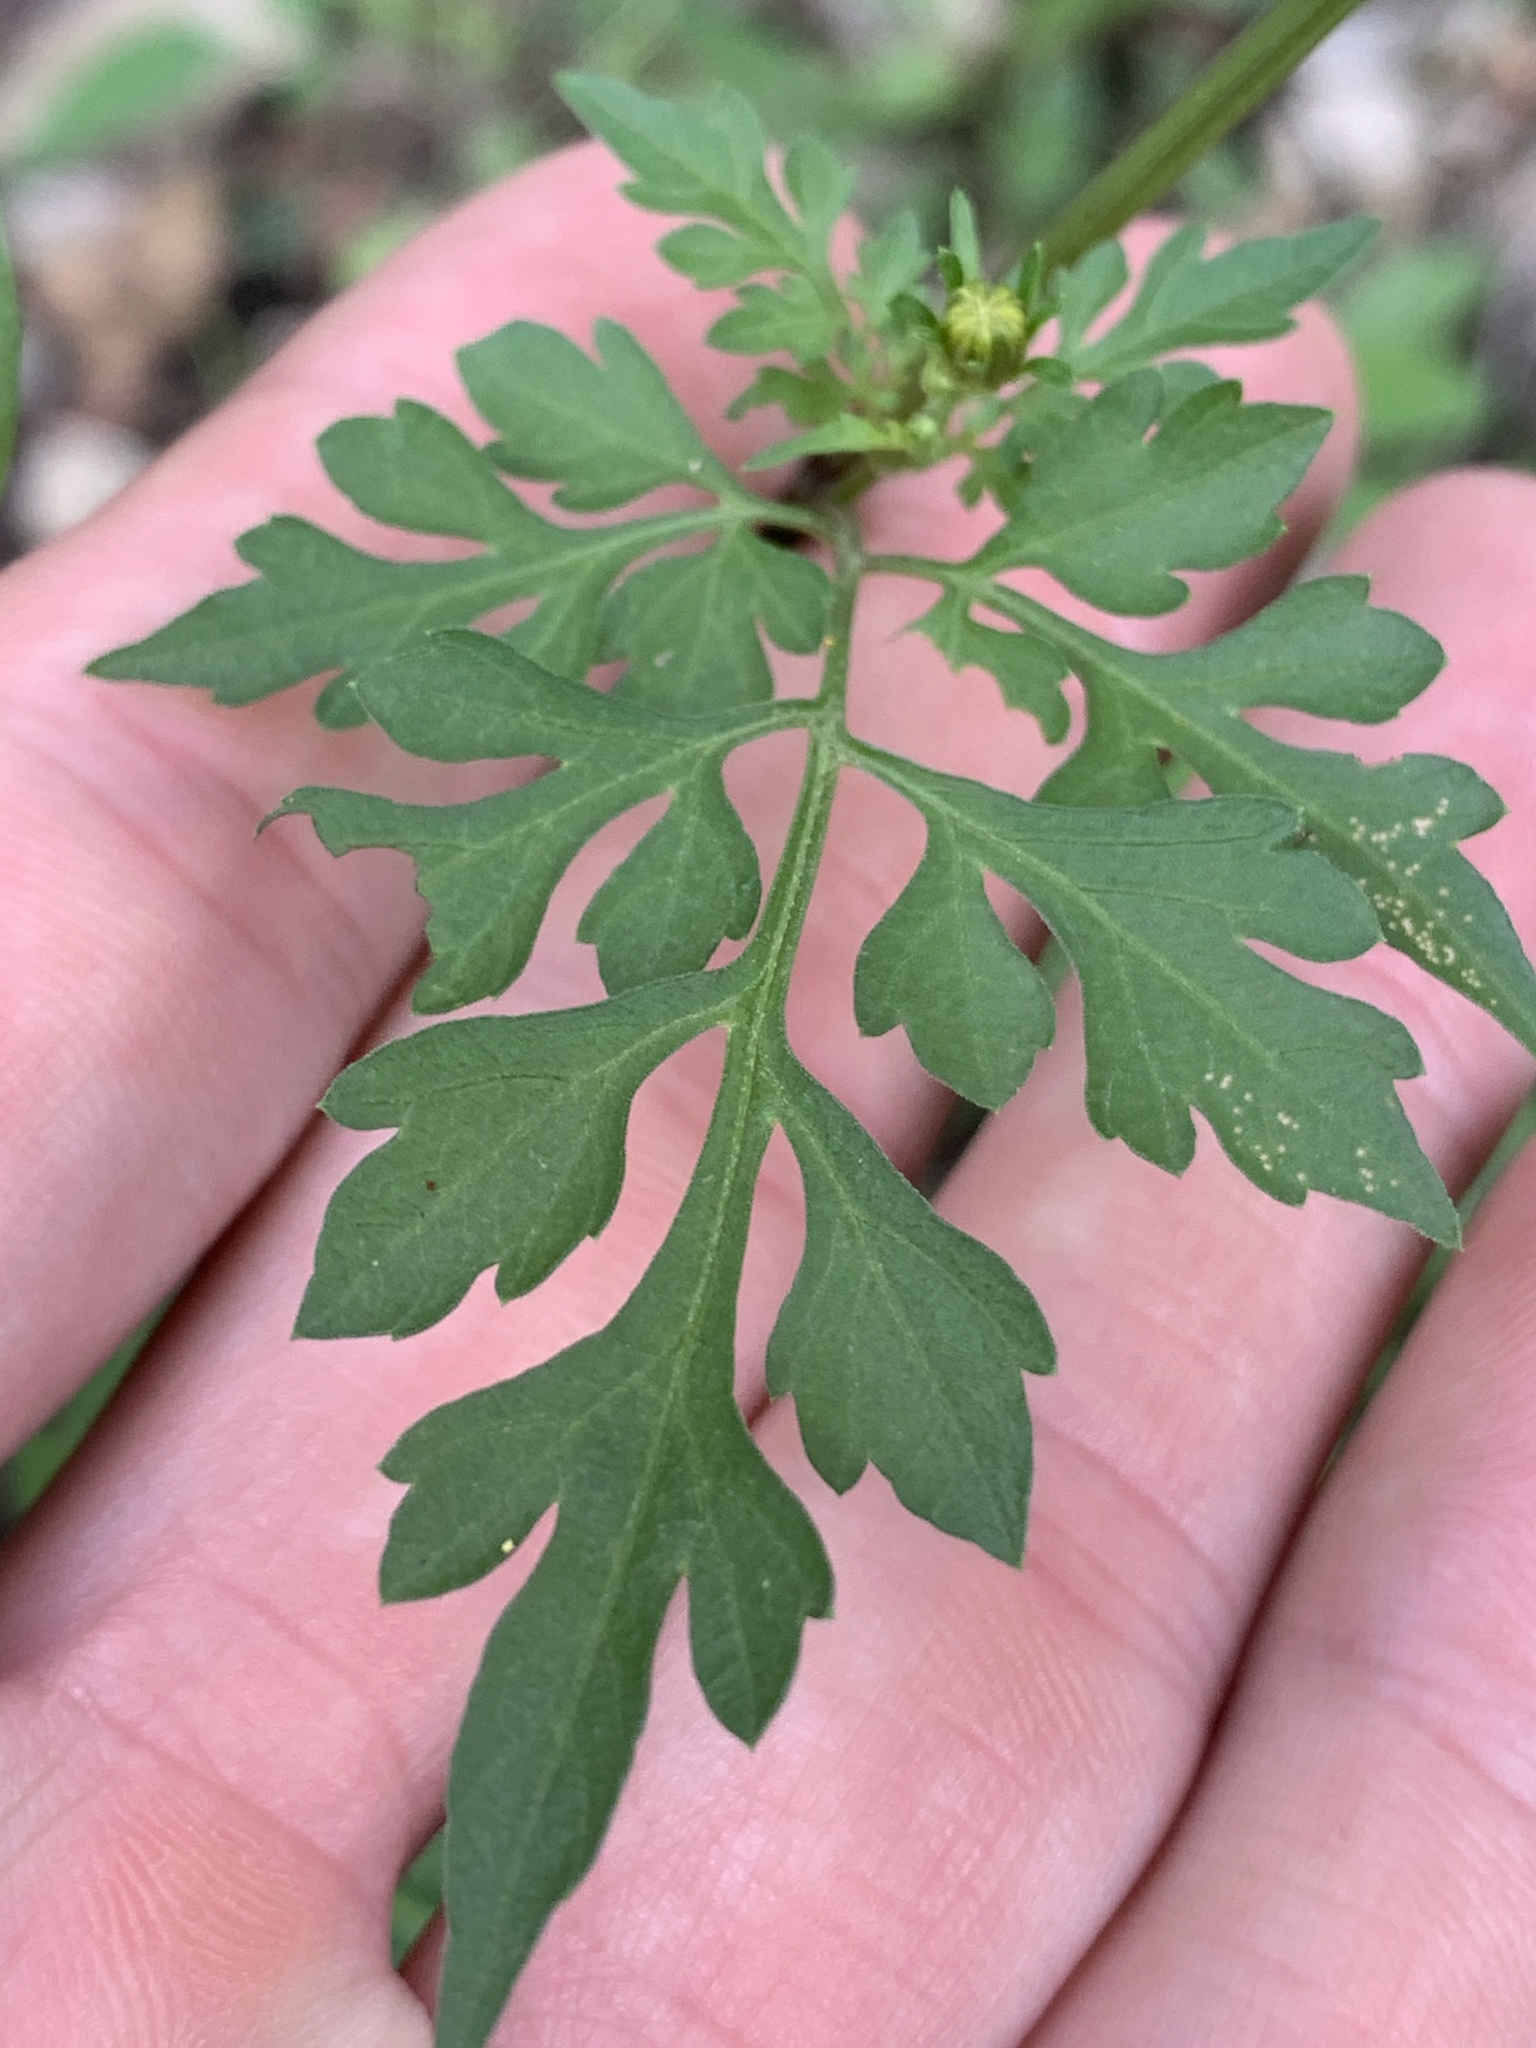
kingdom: Plantae
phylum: Tracheophyta
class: Magnoliopsida
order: Asterales
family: Asteraceae
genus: Bidens
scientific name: Bidens bipinnata
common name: Spanish-needles
